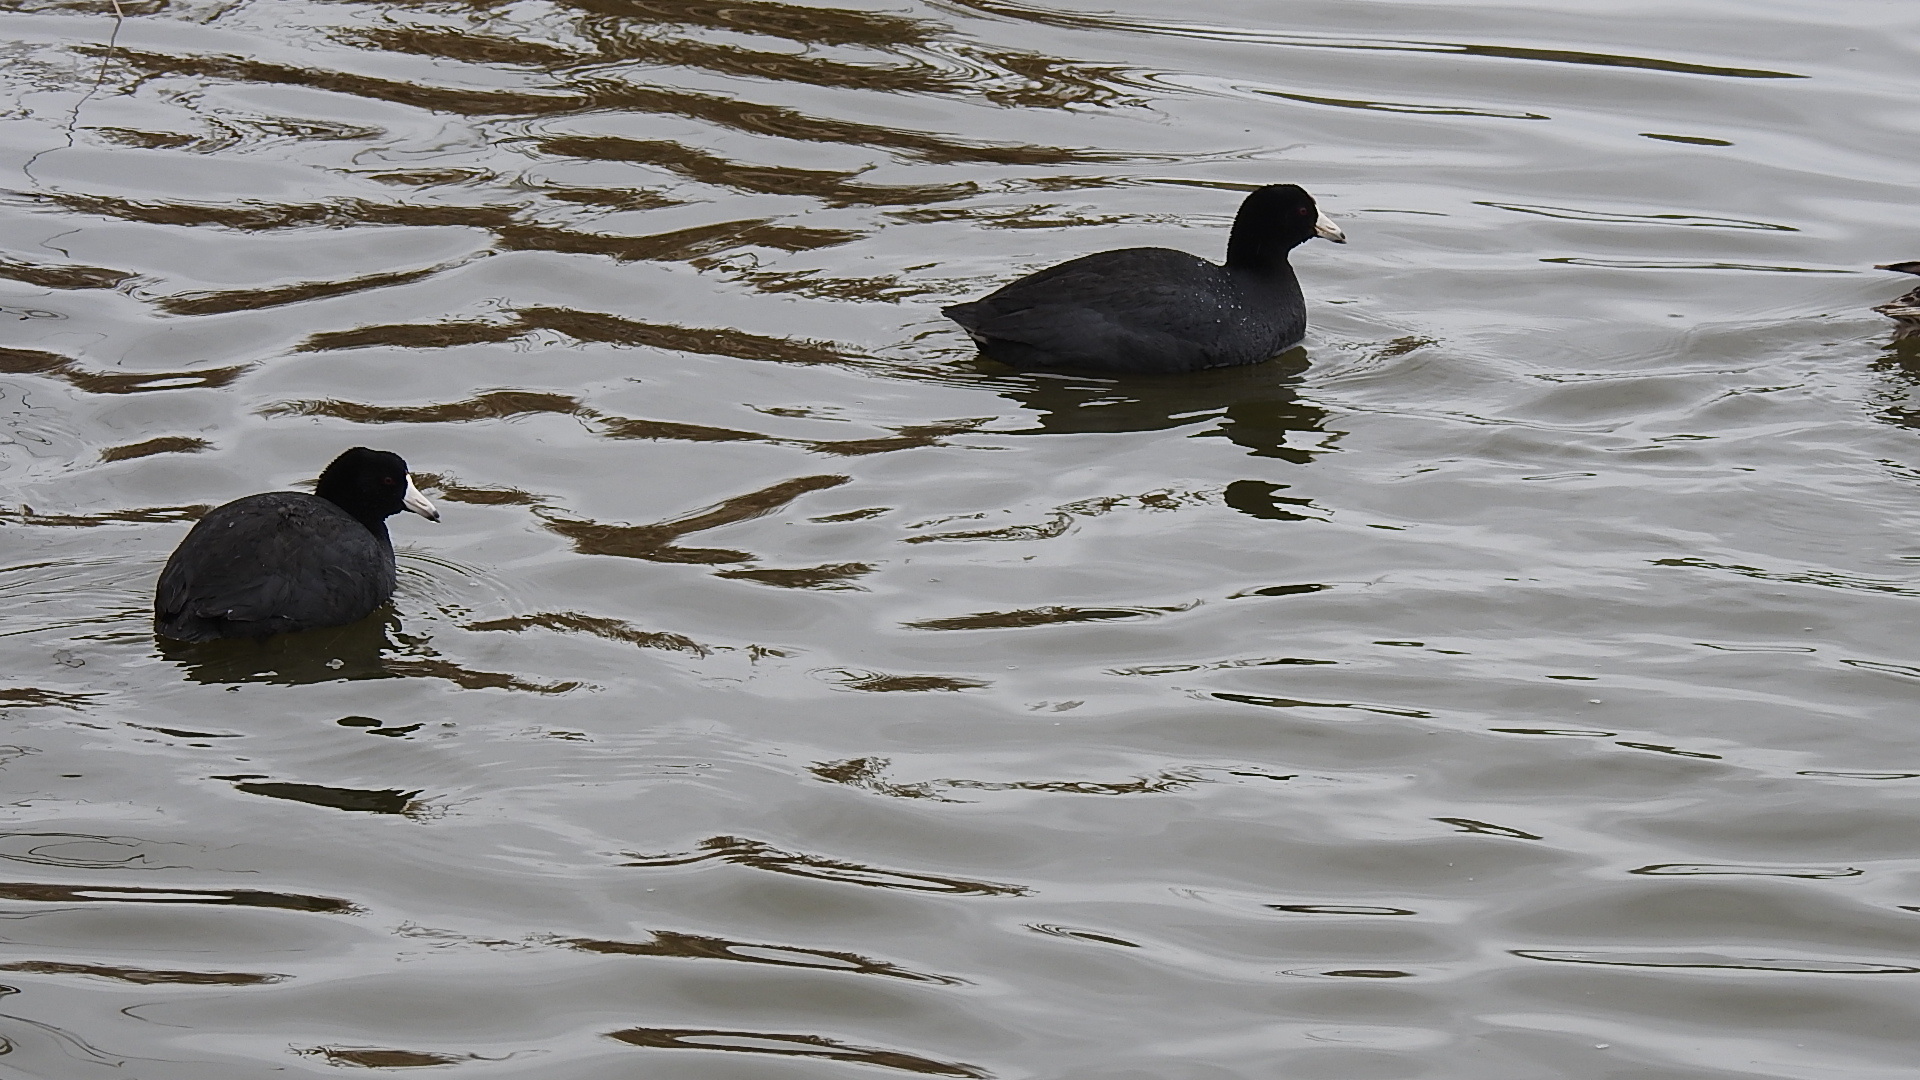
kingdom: Animalia
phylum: Chordata
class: Aves
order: Gruiformes
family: Rallidae
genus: Fulica
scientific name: Fulica americana
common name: American coot
